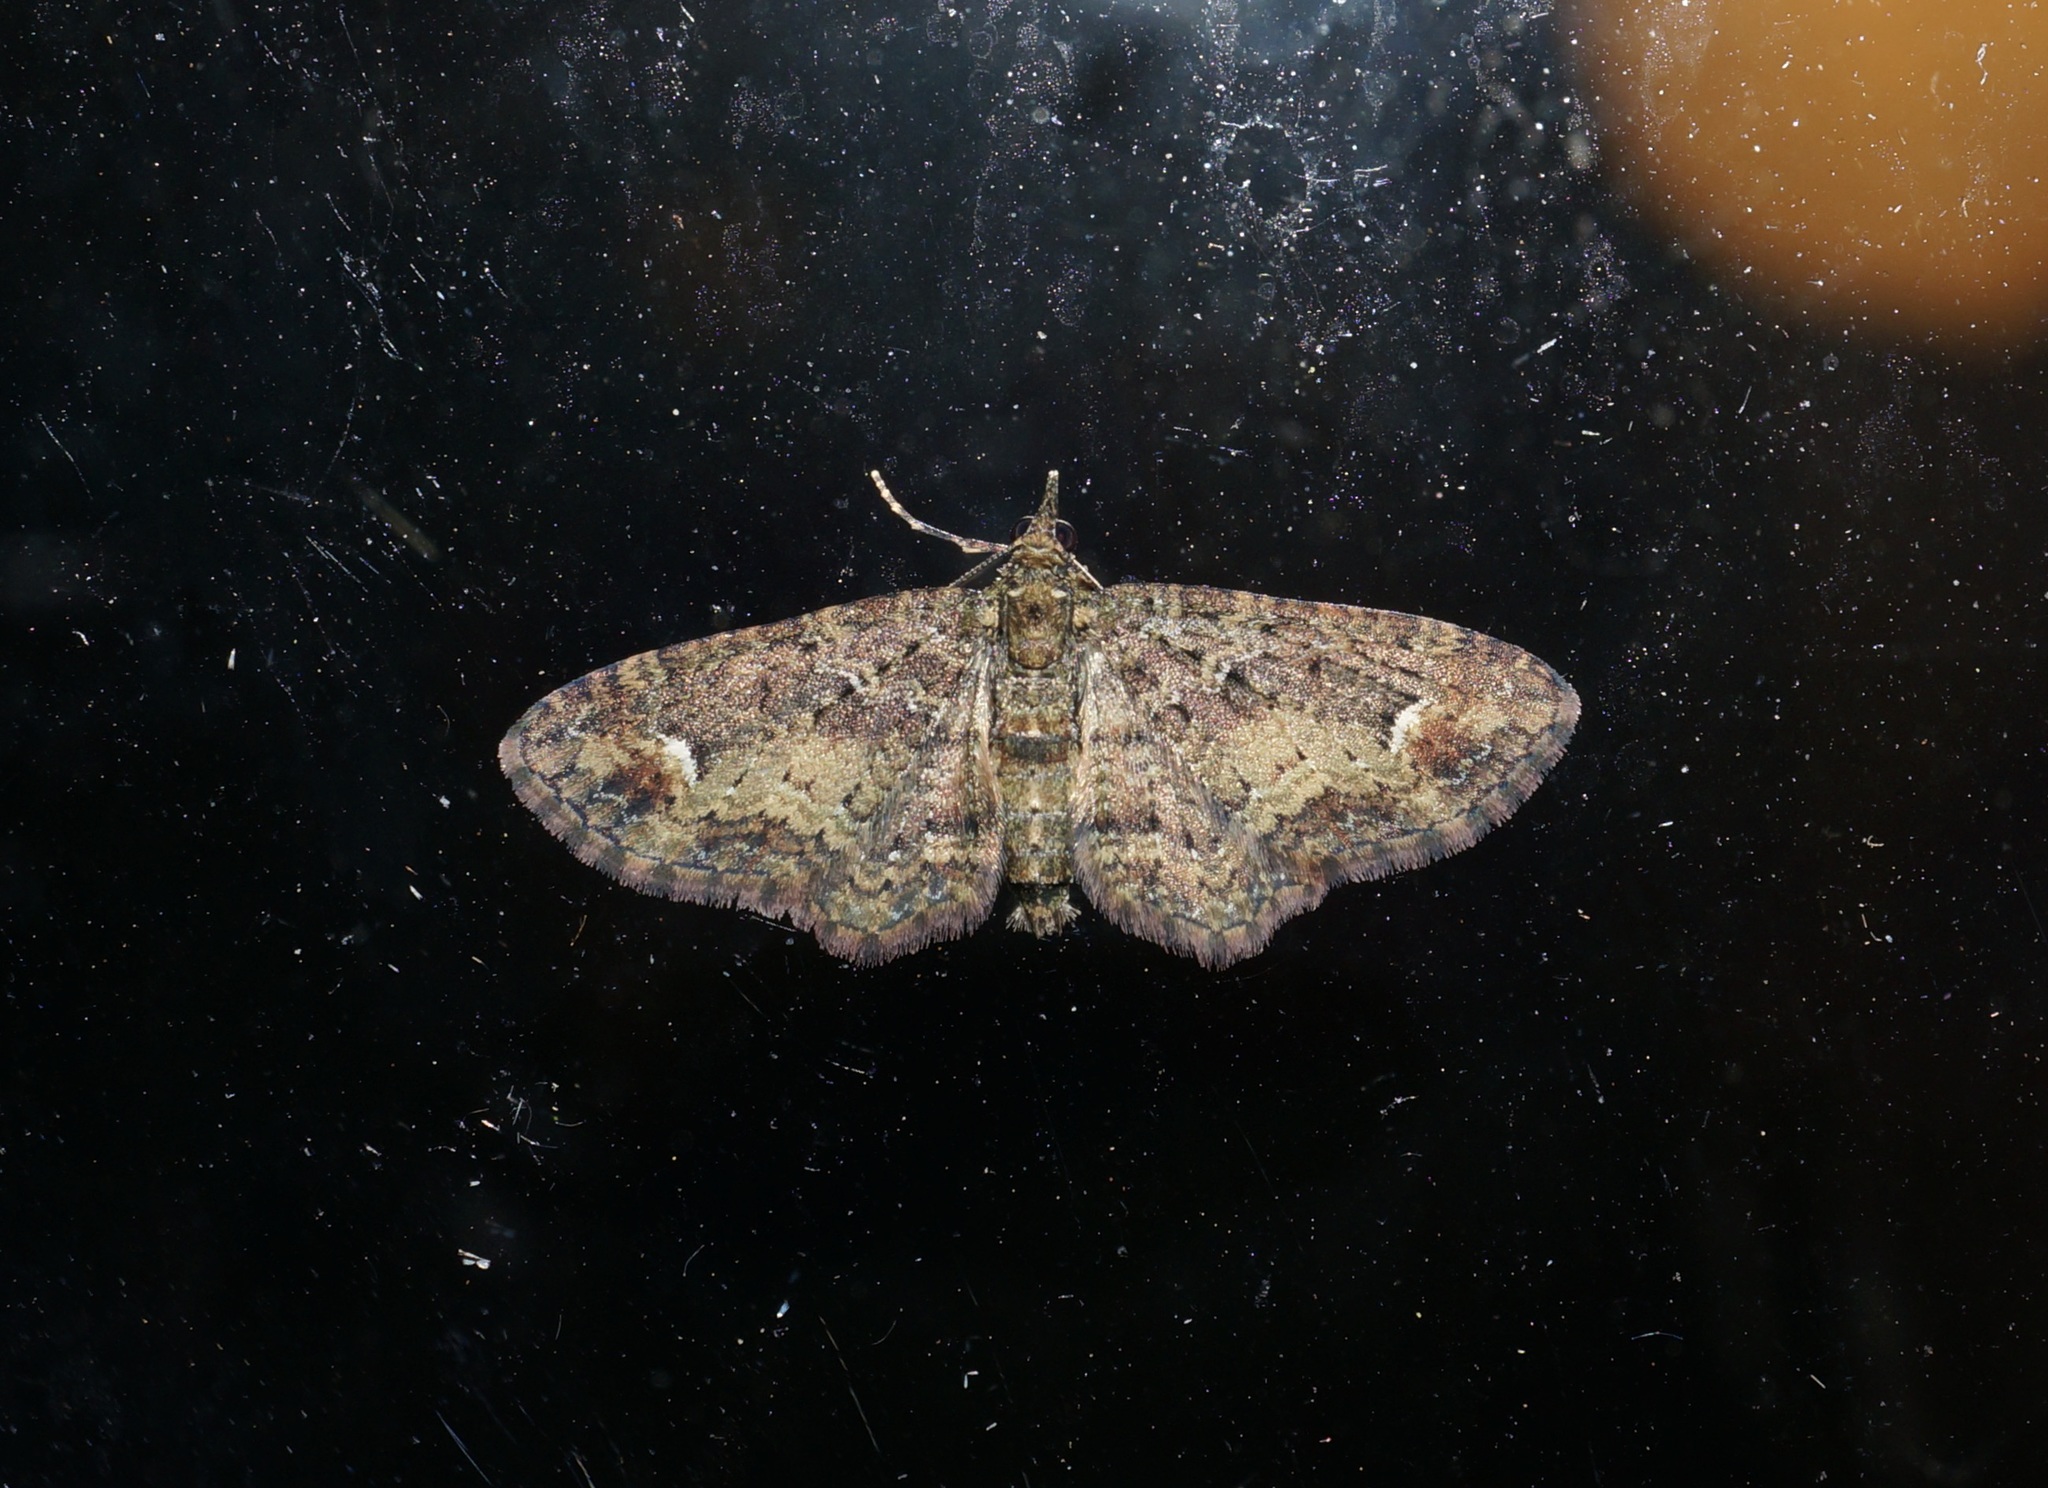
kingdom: Animalia
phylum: Arthropoda
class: Insecta
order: Lepidoptera
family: Geometridae
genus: Pasiphilodes
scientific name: Pasiphilodes testulata
